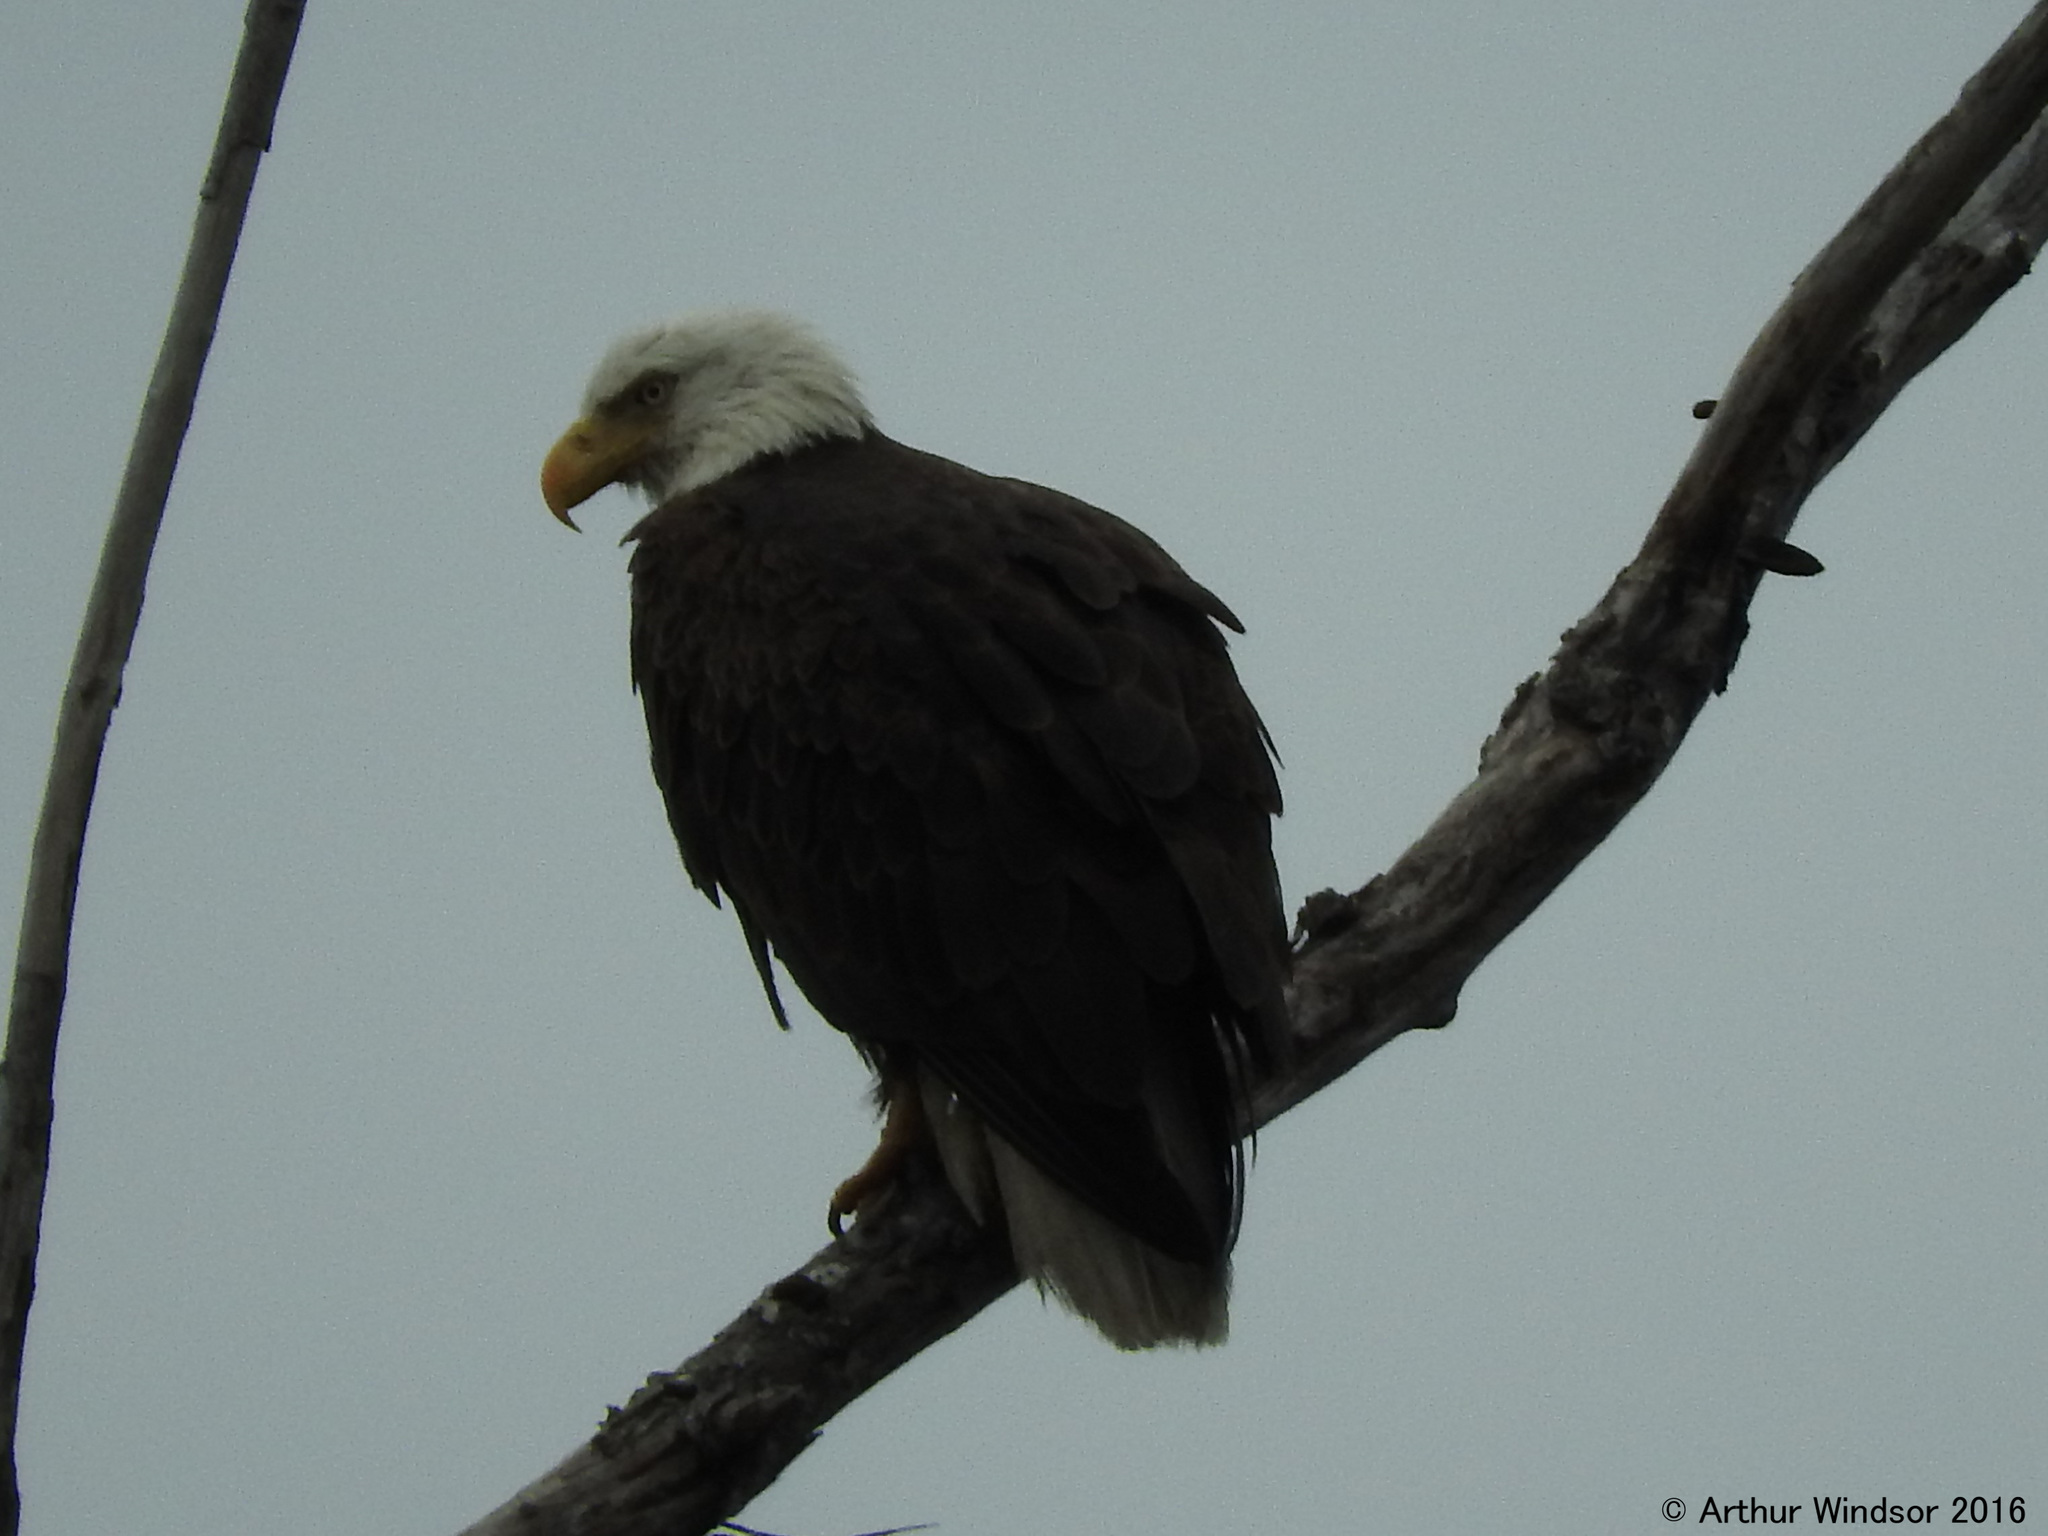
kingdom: Animalia
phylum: Chordata
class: Aves
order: Accipitriformes
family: Accipitridae
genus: Haliaeetus
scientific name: Haliaeetus leucocephalus
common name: Bald eagle
